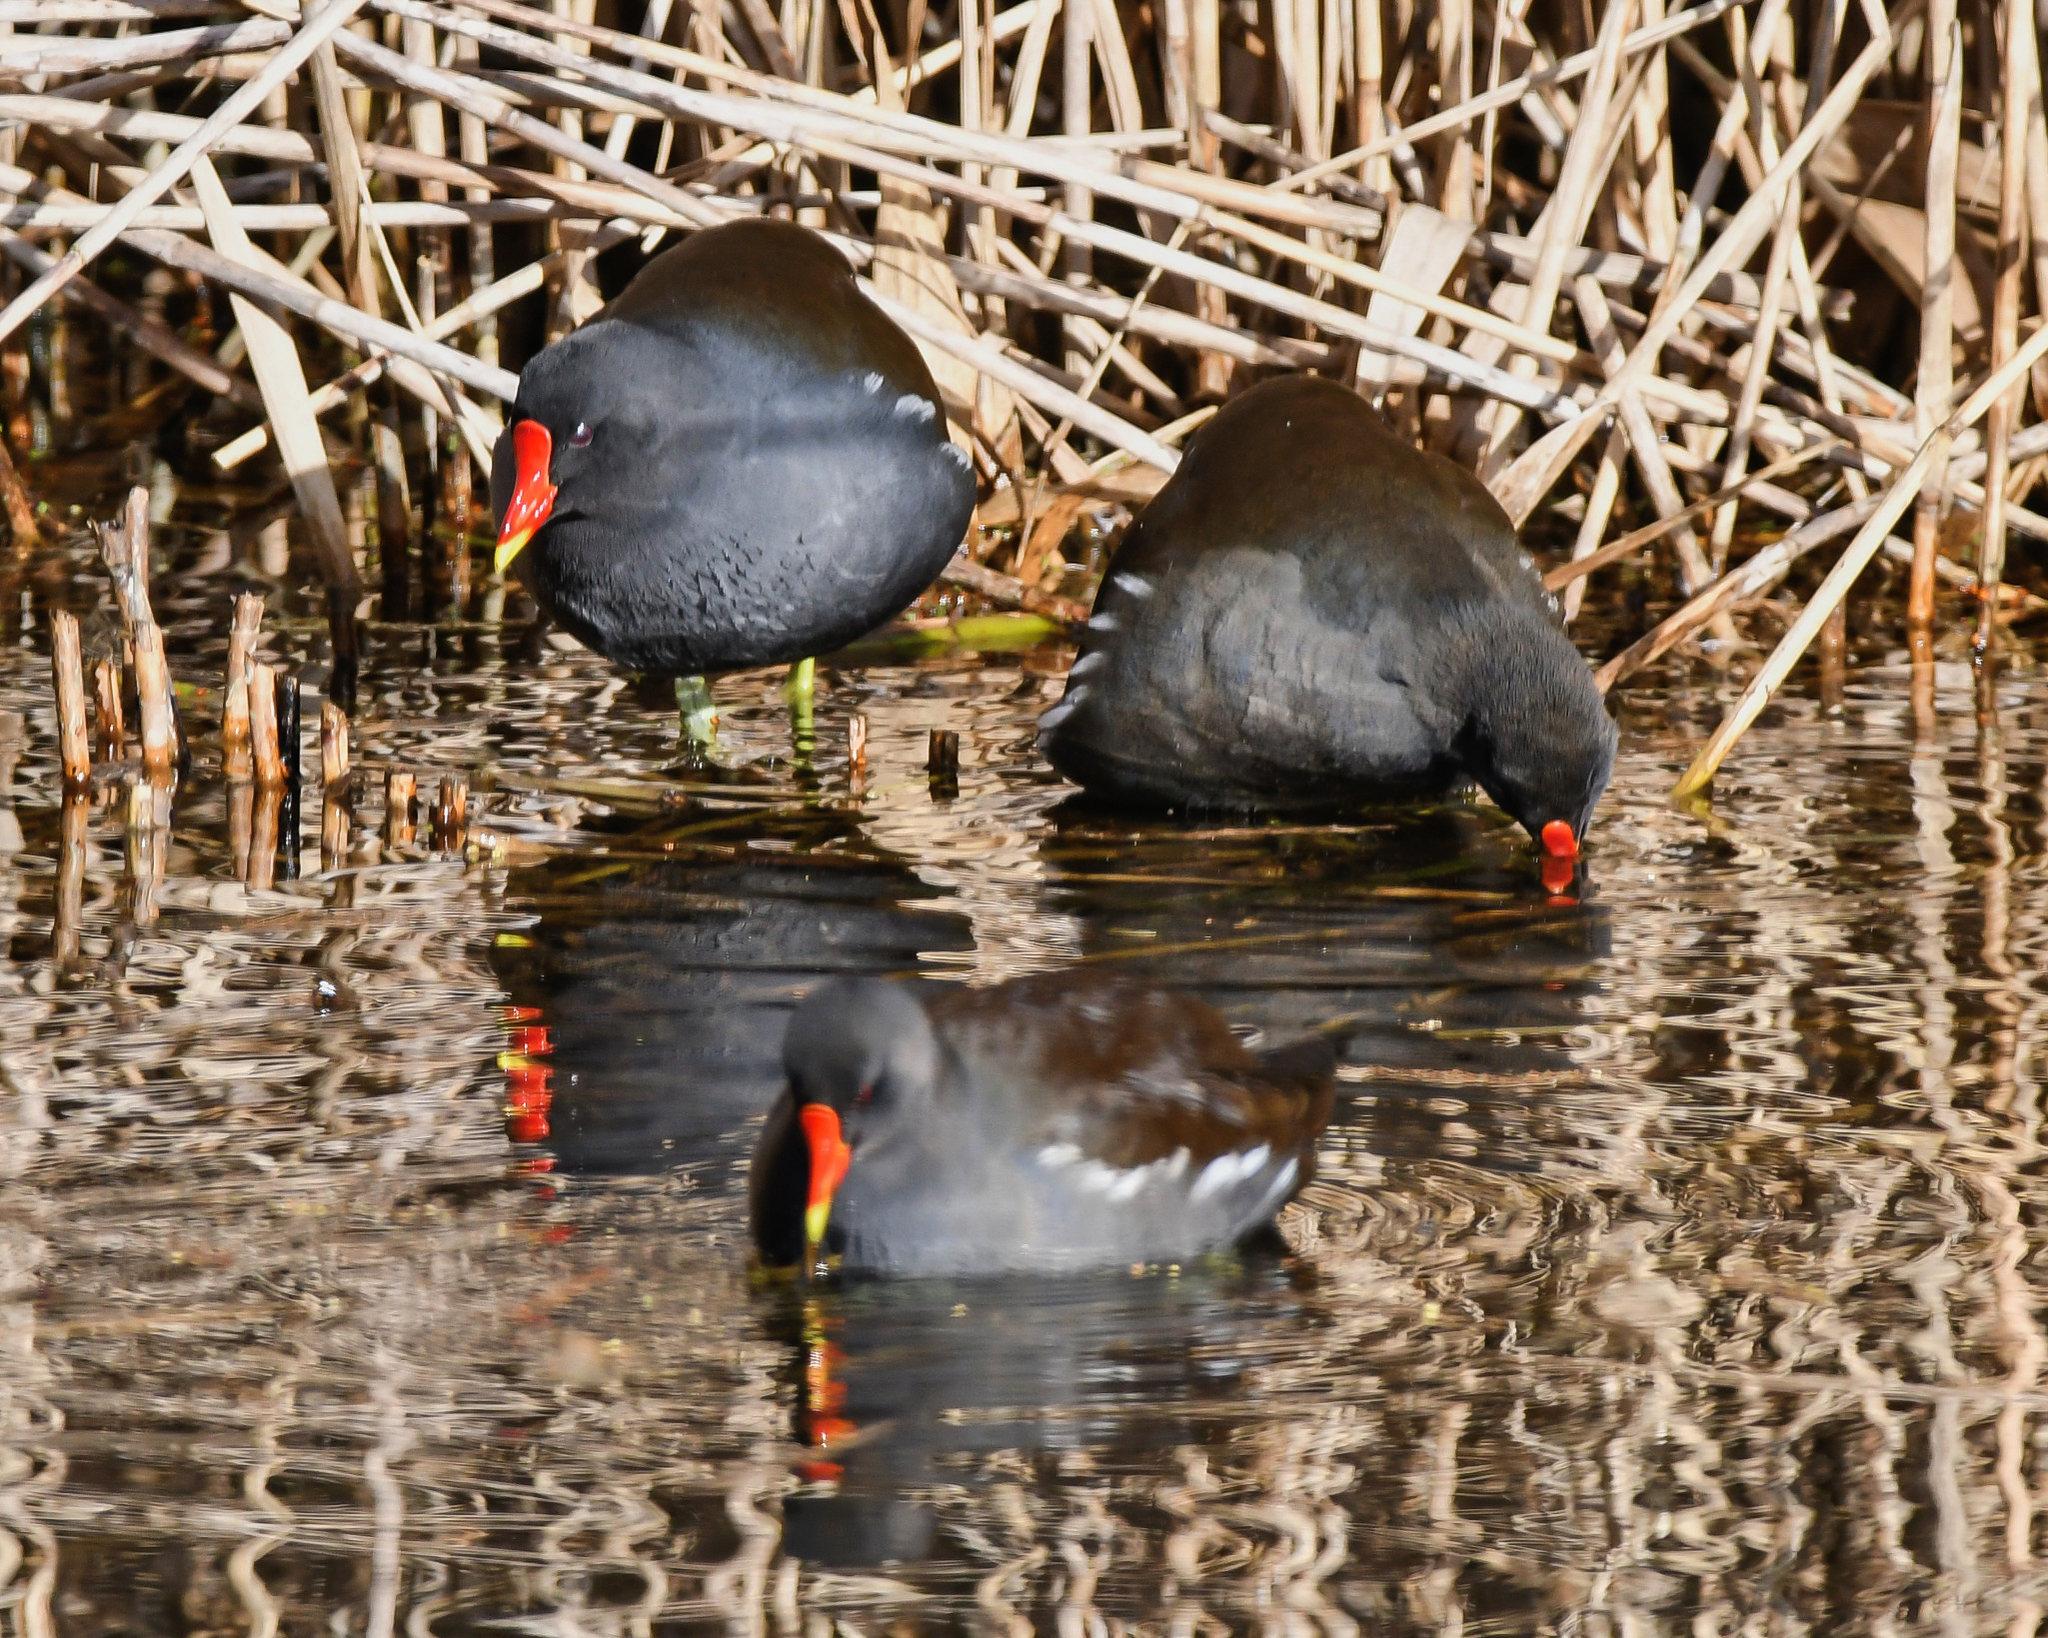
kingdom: Animalia
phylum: Chordata
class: Aves
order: Gruiformes
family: Rallidae
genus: Gallinula
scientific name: Gallinula chloropus
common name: Common moorhen
